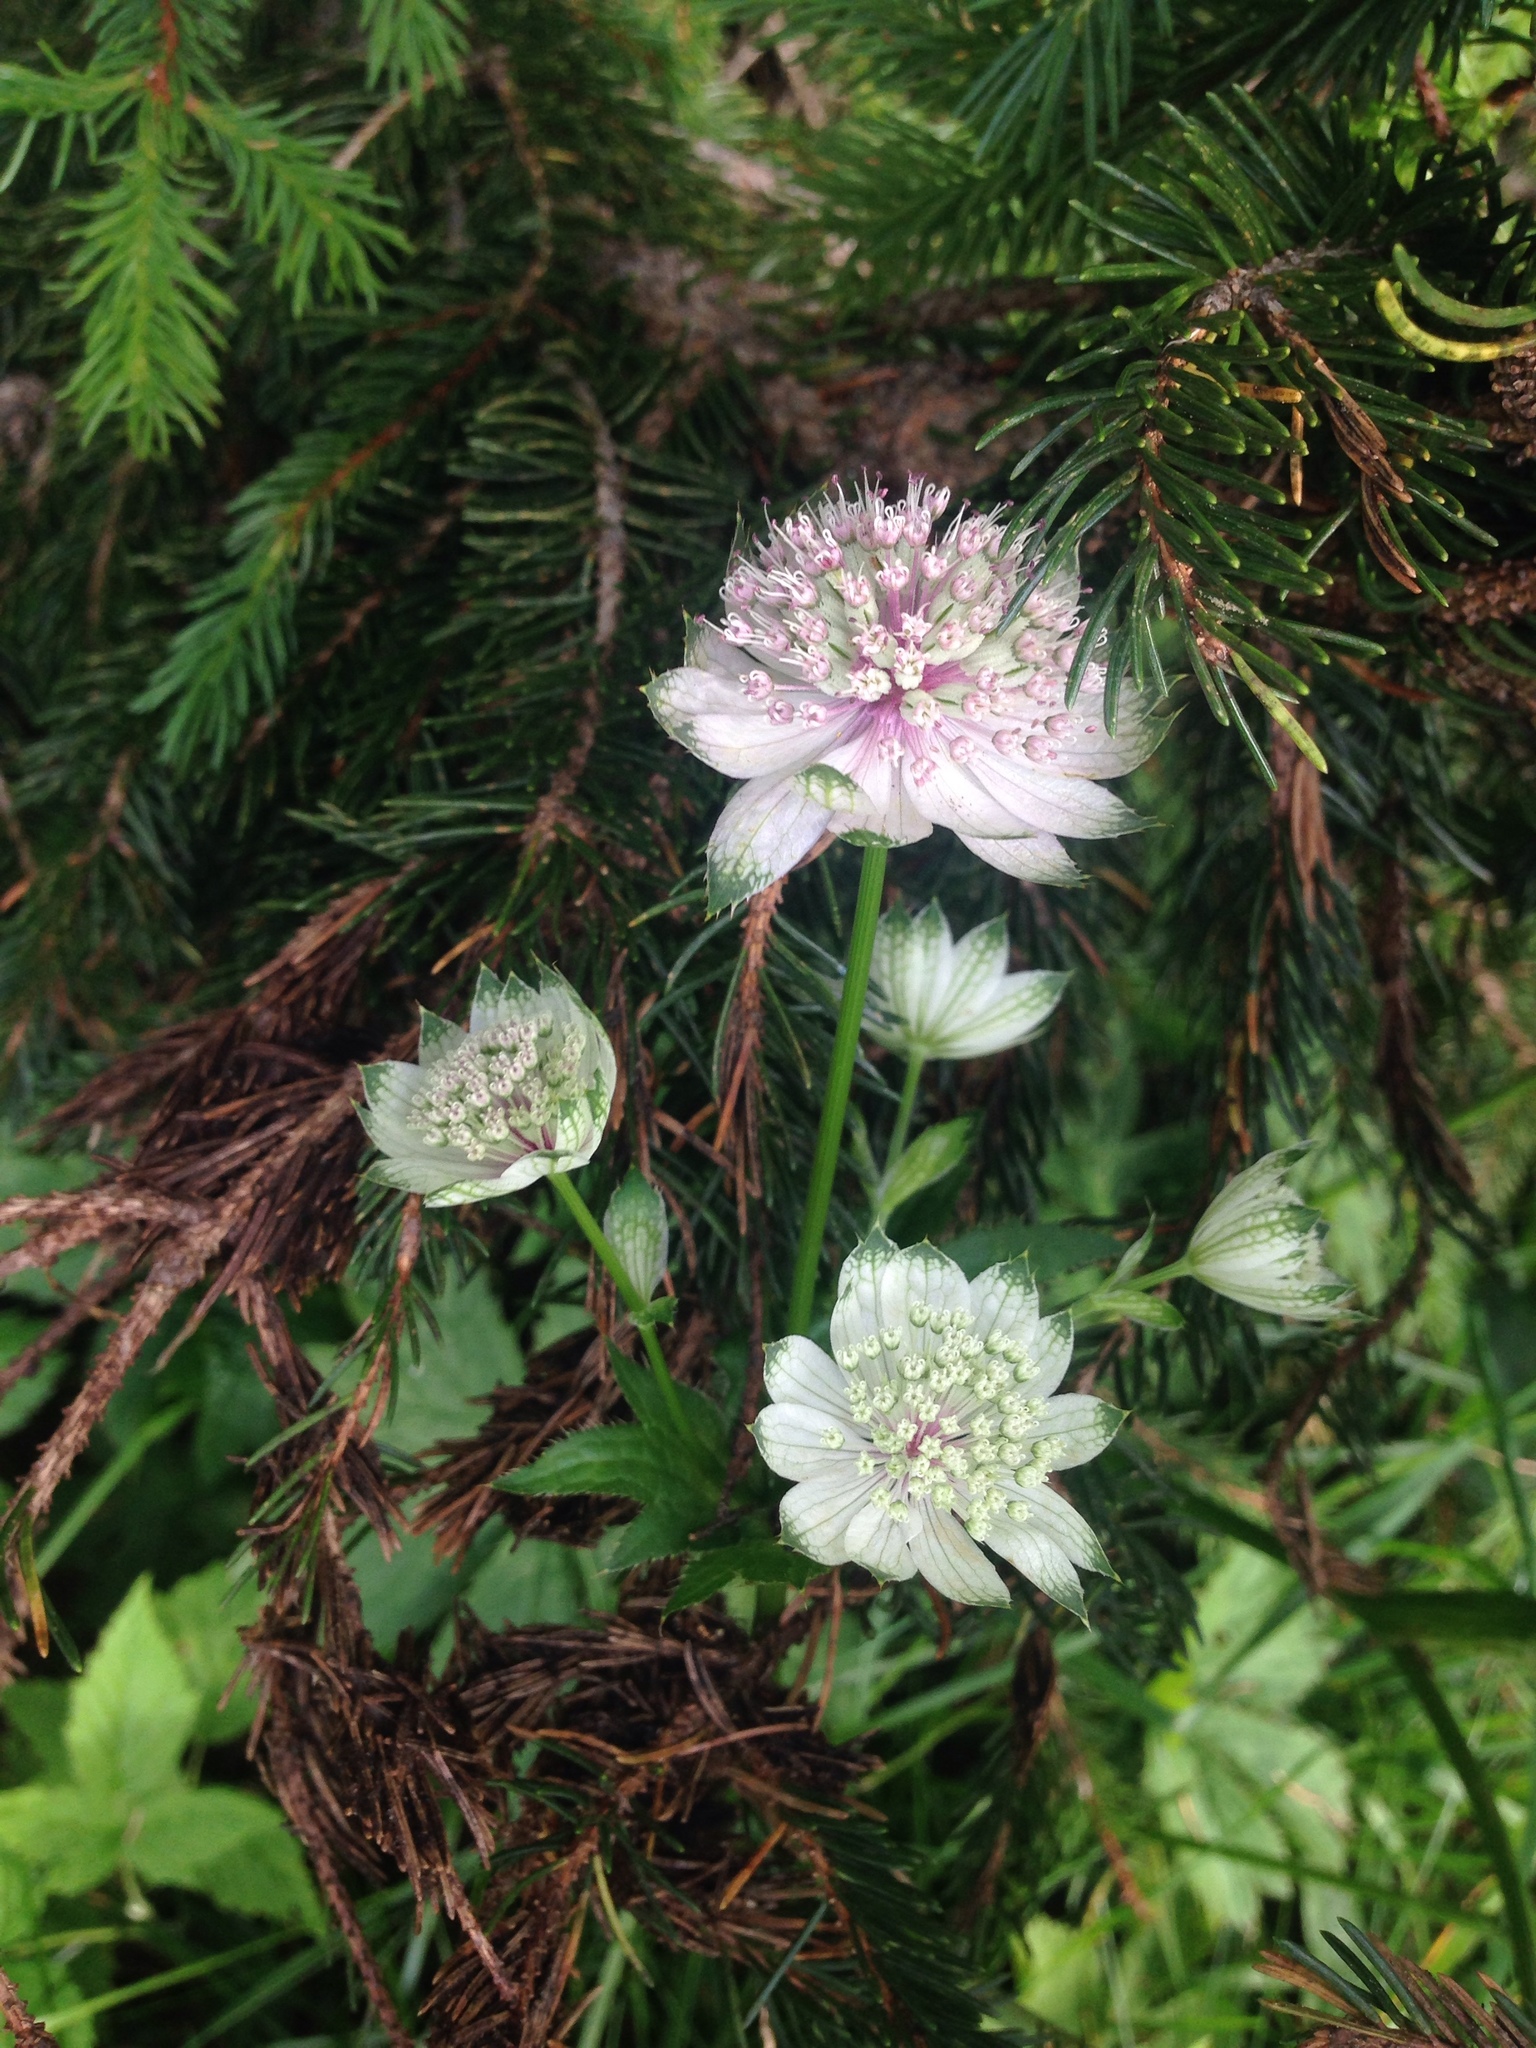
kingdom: Plantae
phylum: Tracheophyta
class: Magnoliopsida
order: Apiales
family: Apiaceae
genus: Astrantia
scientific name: Astrantia major
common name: Greater masterwort
